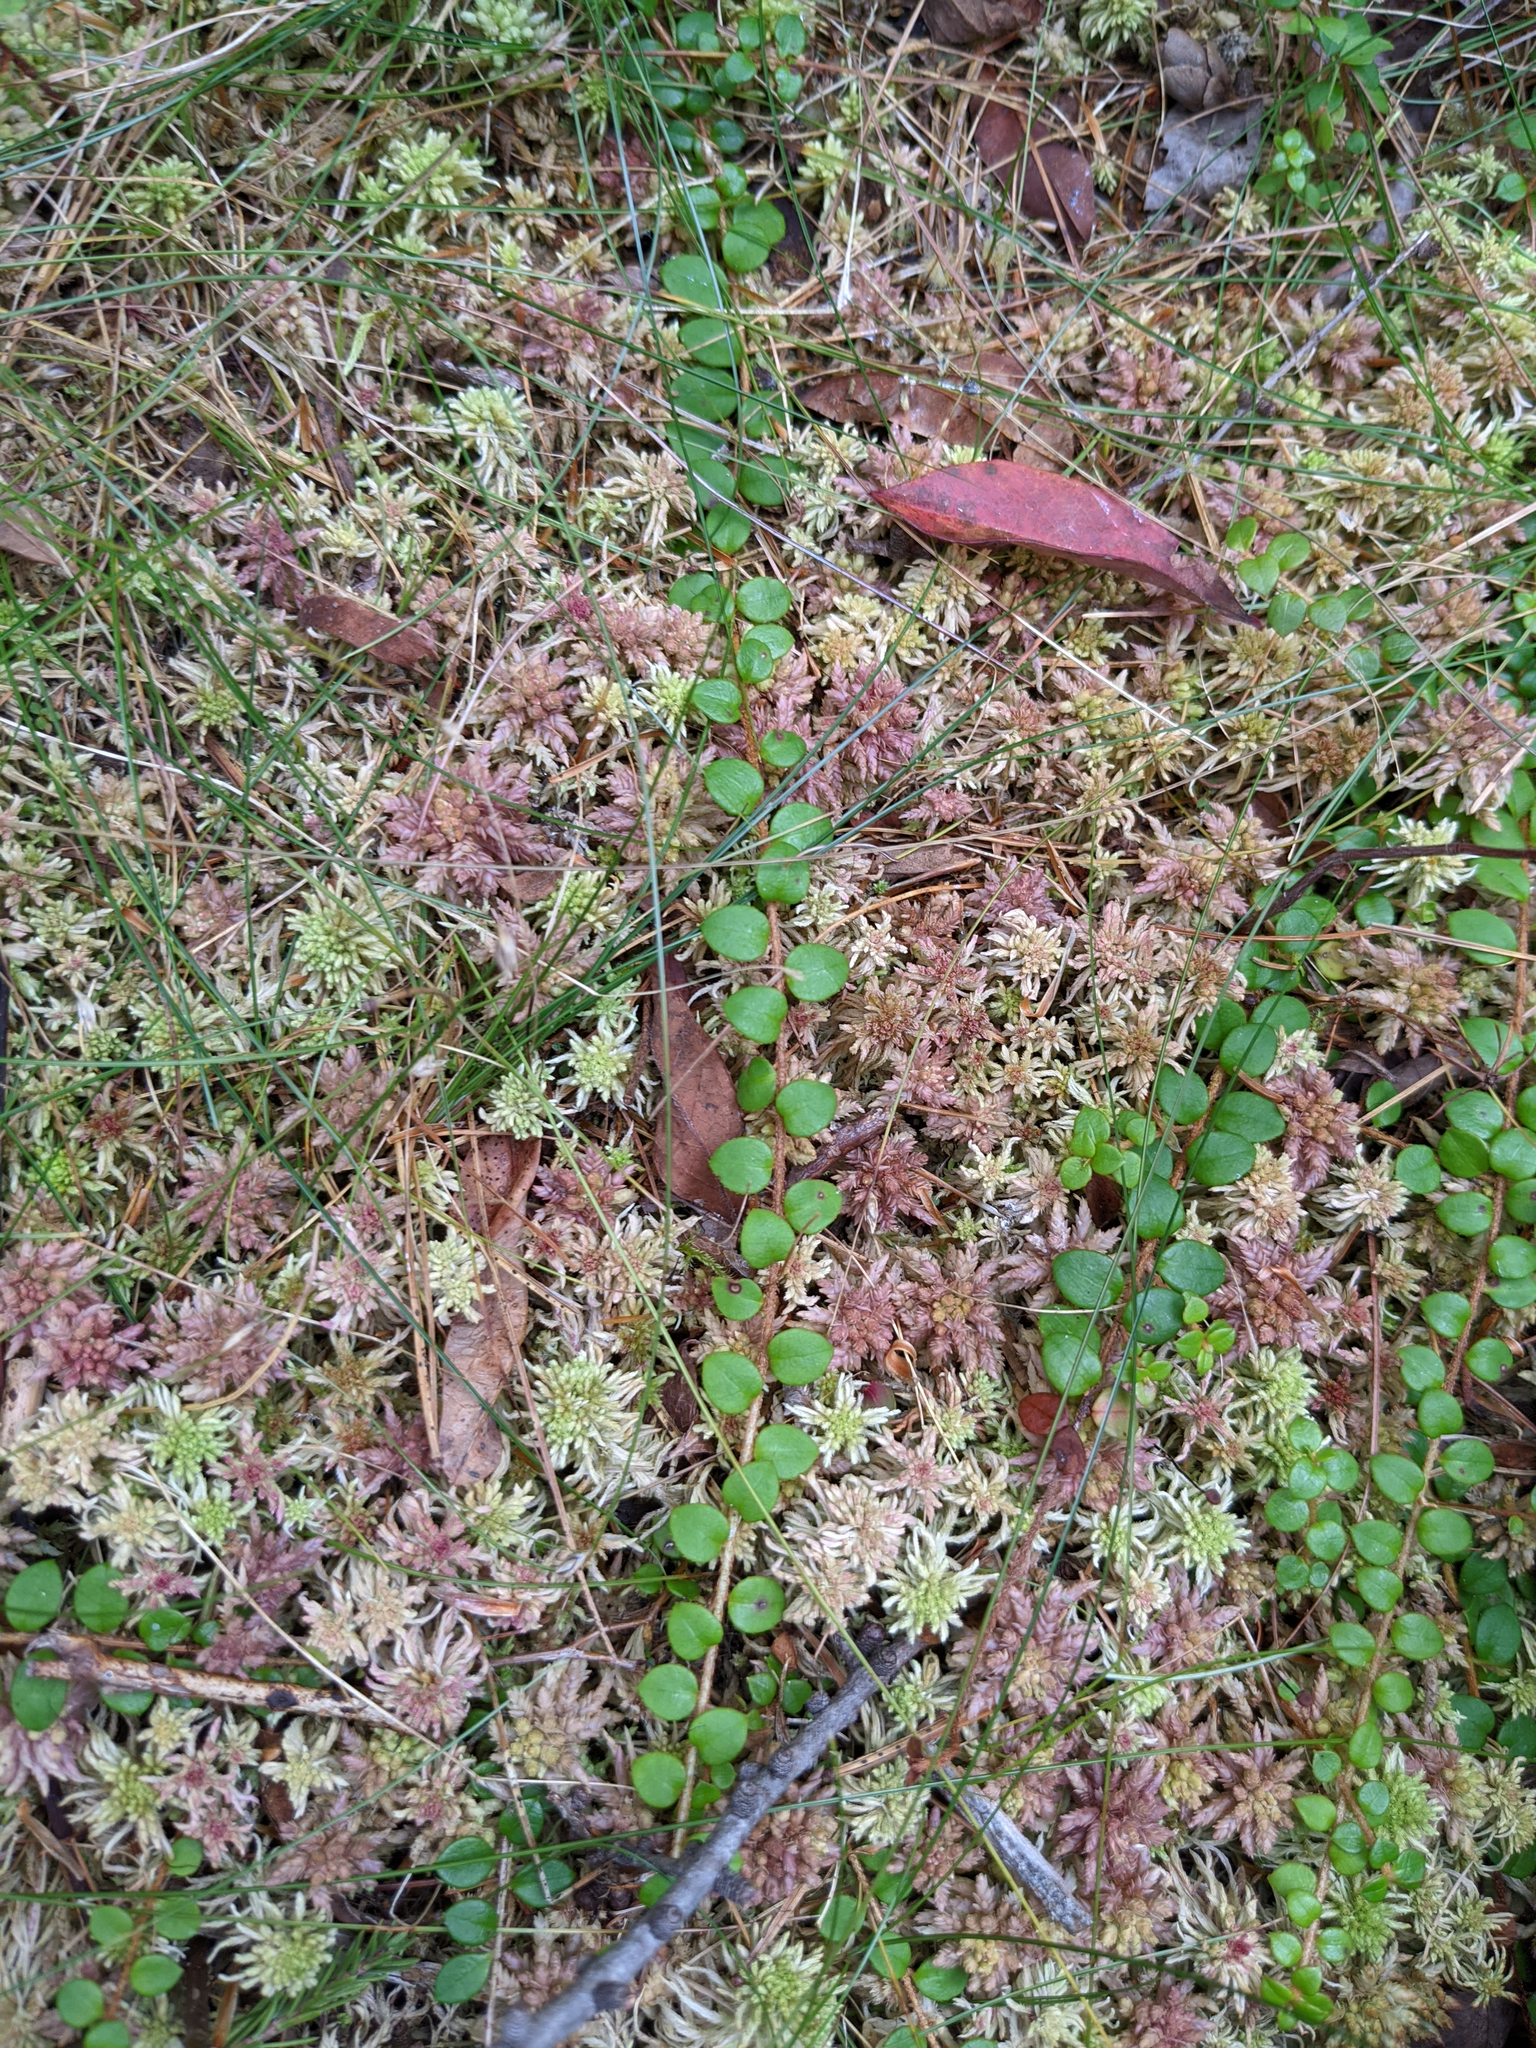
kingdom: Plantae
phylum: Tracheophyta
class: Magnoliopsida
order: Ericales
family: Ericaceae
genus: Gaultheria
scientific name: Gaultheria hispidula
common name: Cancer wintergreen
